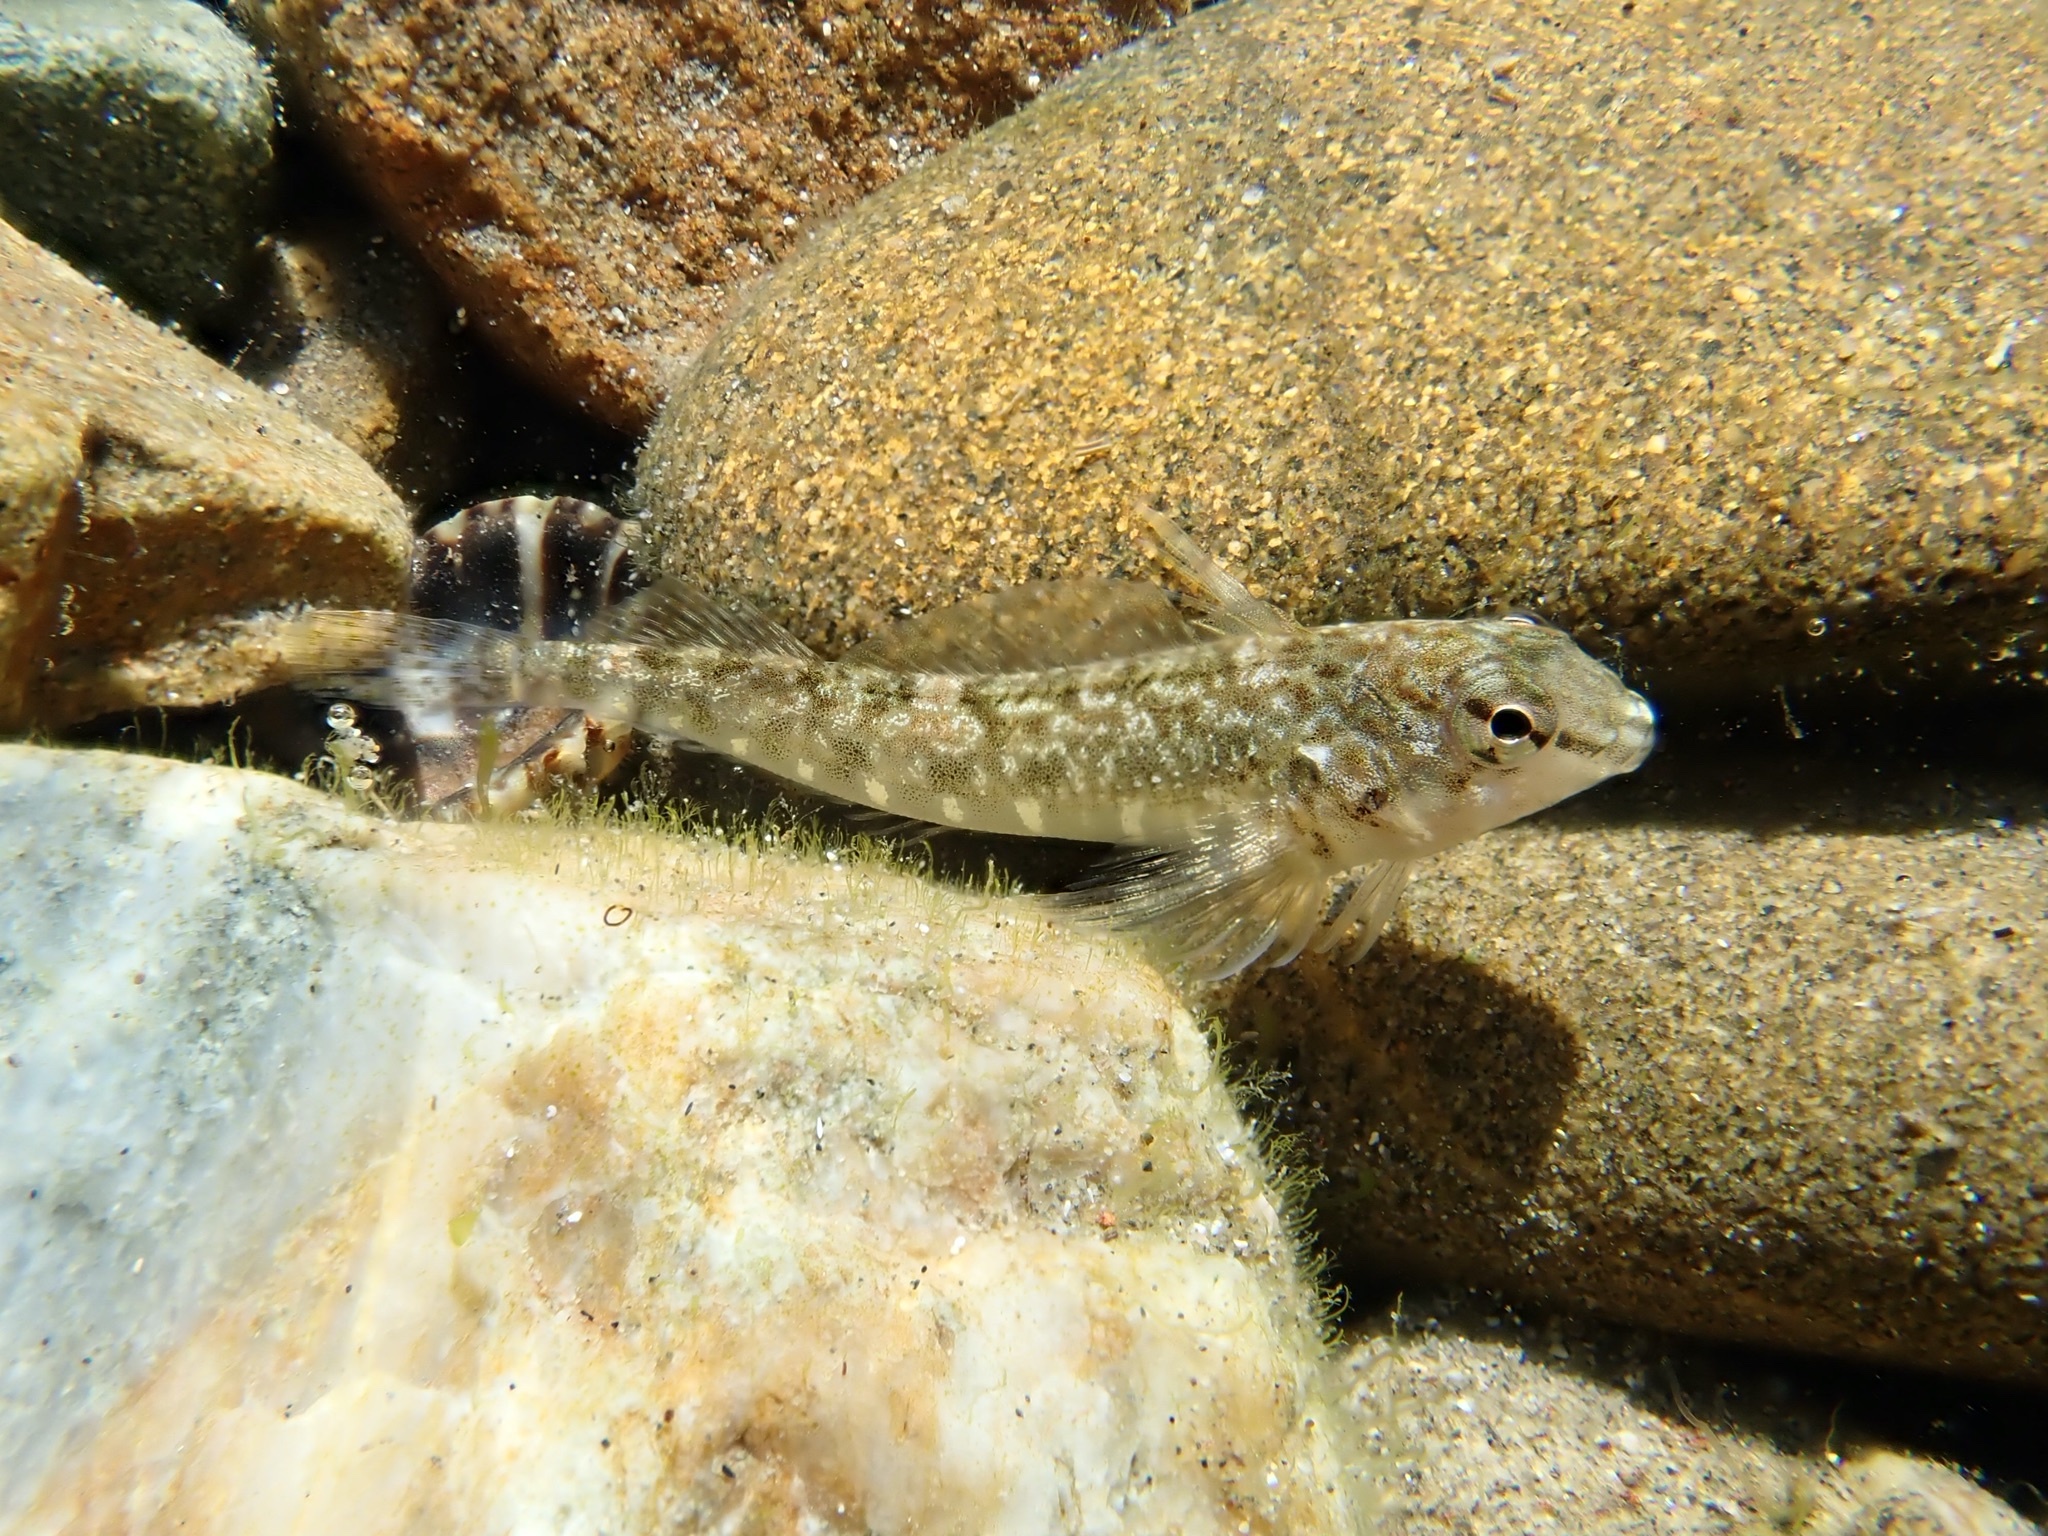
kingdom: Animalia
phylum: Chordata
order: Perciformes
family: Tripterygiidae
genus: Bellapiscis
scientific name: Bellapiscis medius
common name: Twister
